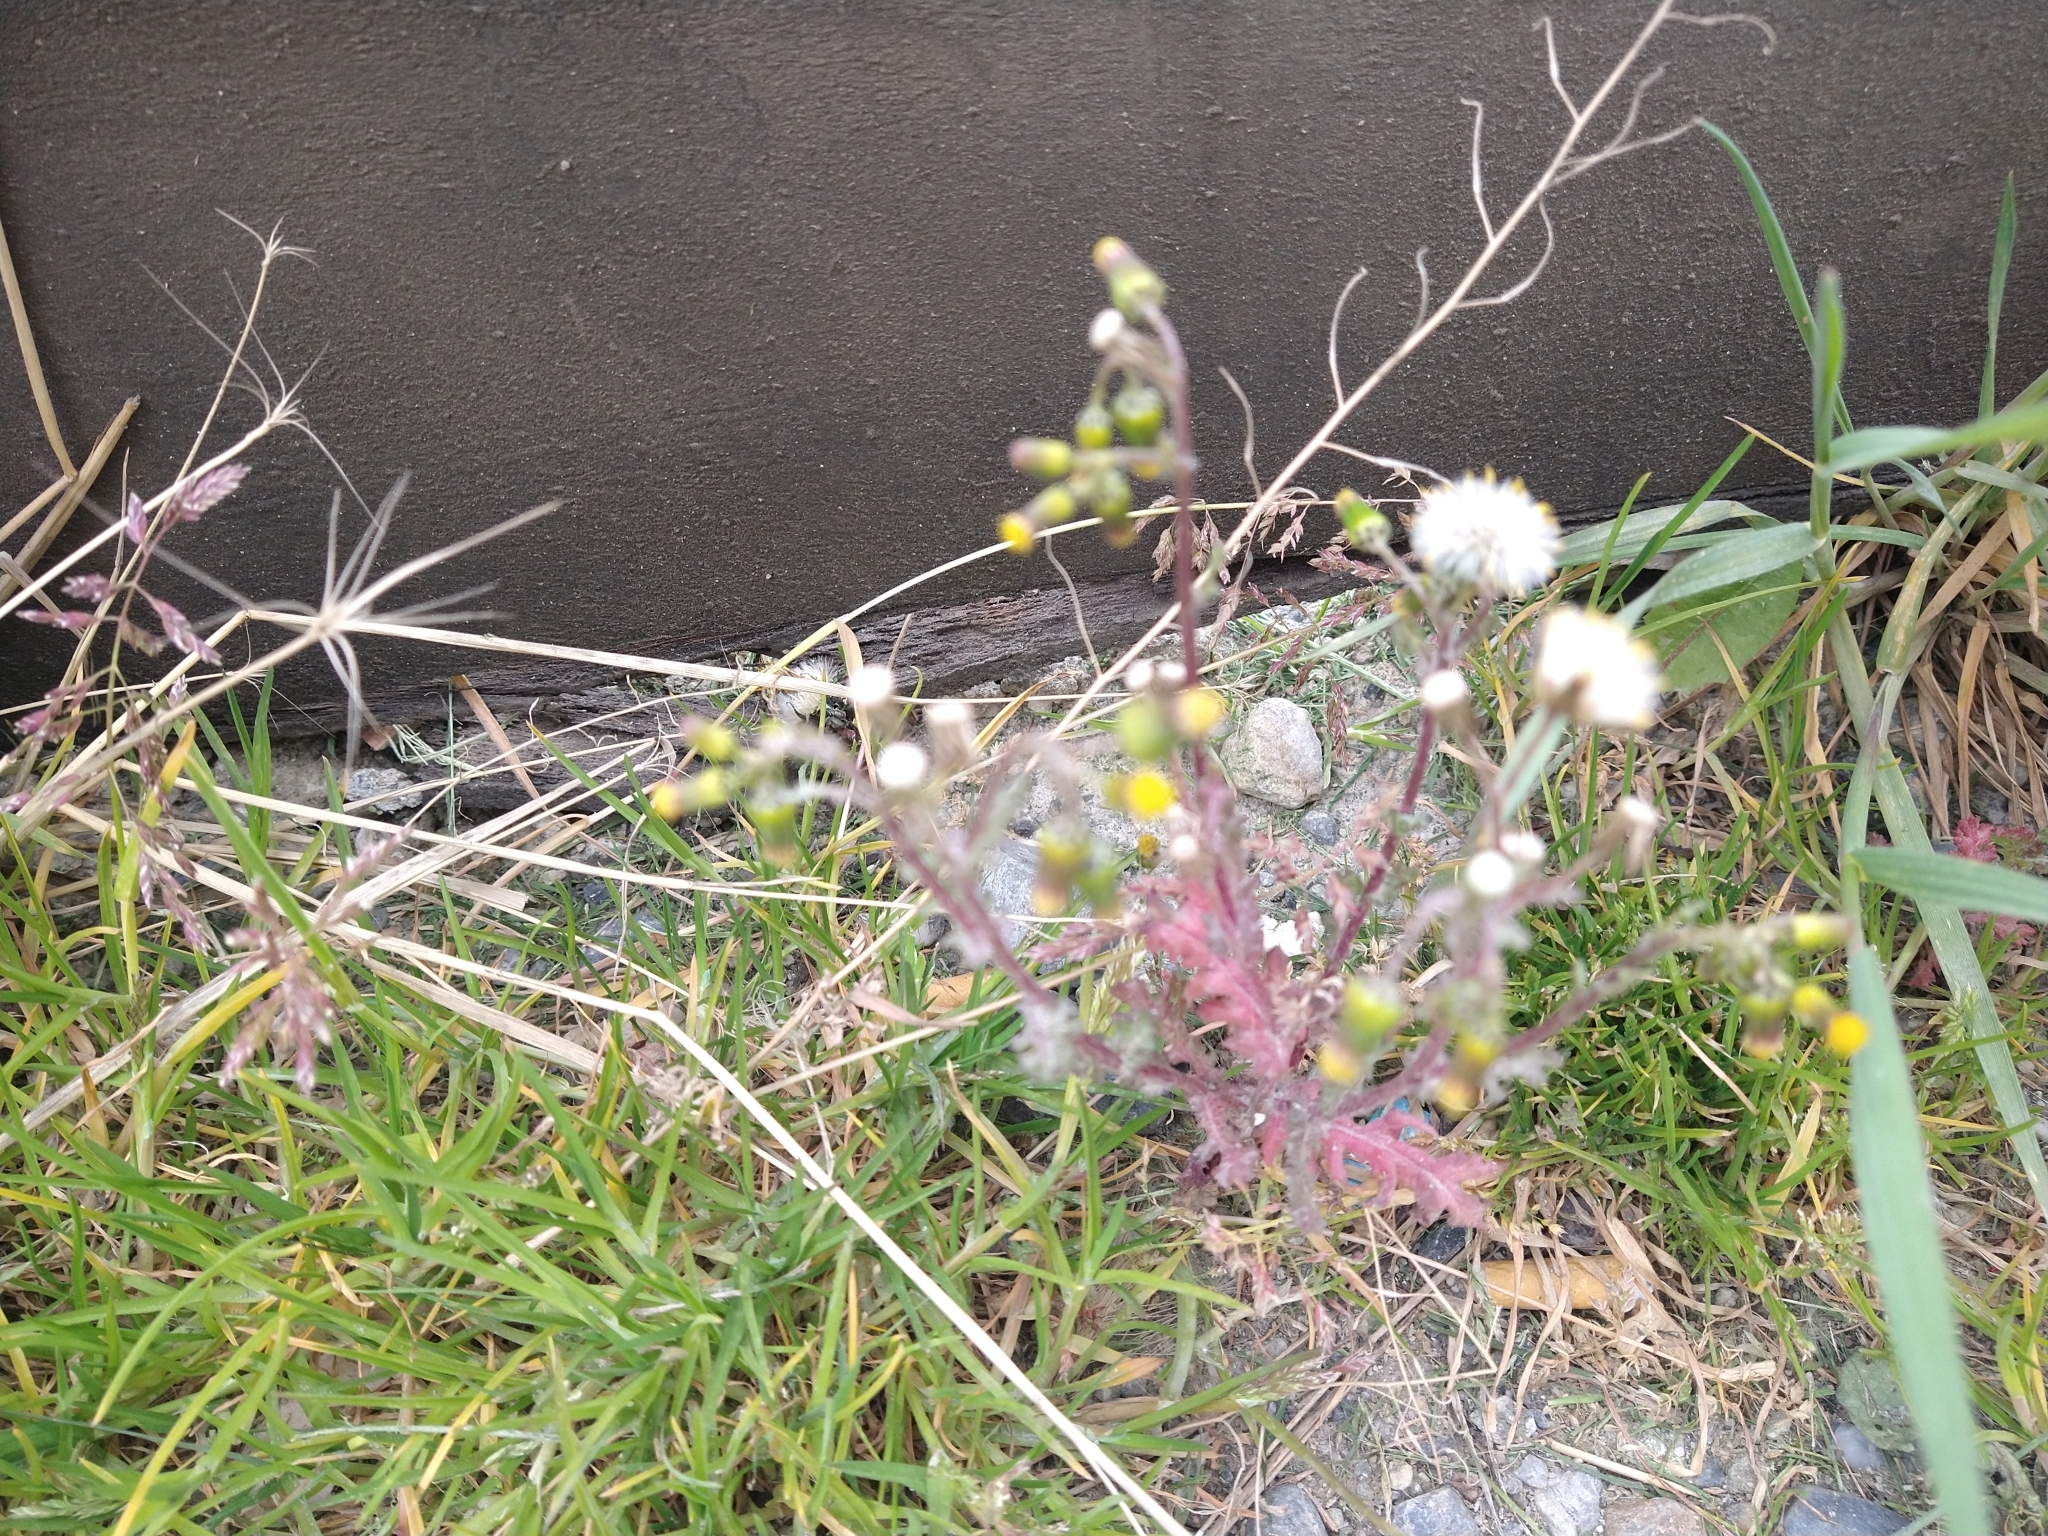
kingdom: Plantae
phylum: Tracheophyta
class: Magnoliopsida
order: Asterales
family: Asteraceae
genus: Senecio
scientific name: Senecio vulgaris
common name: Old-man-in-the-spring
